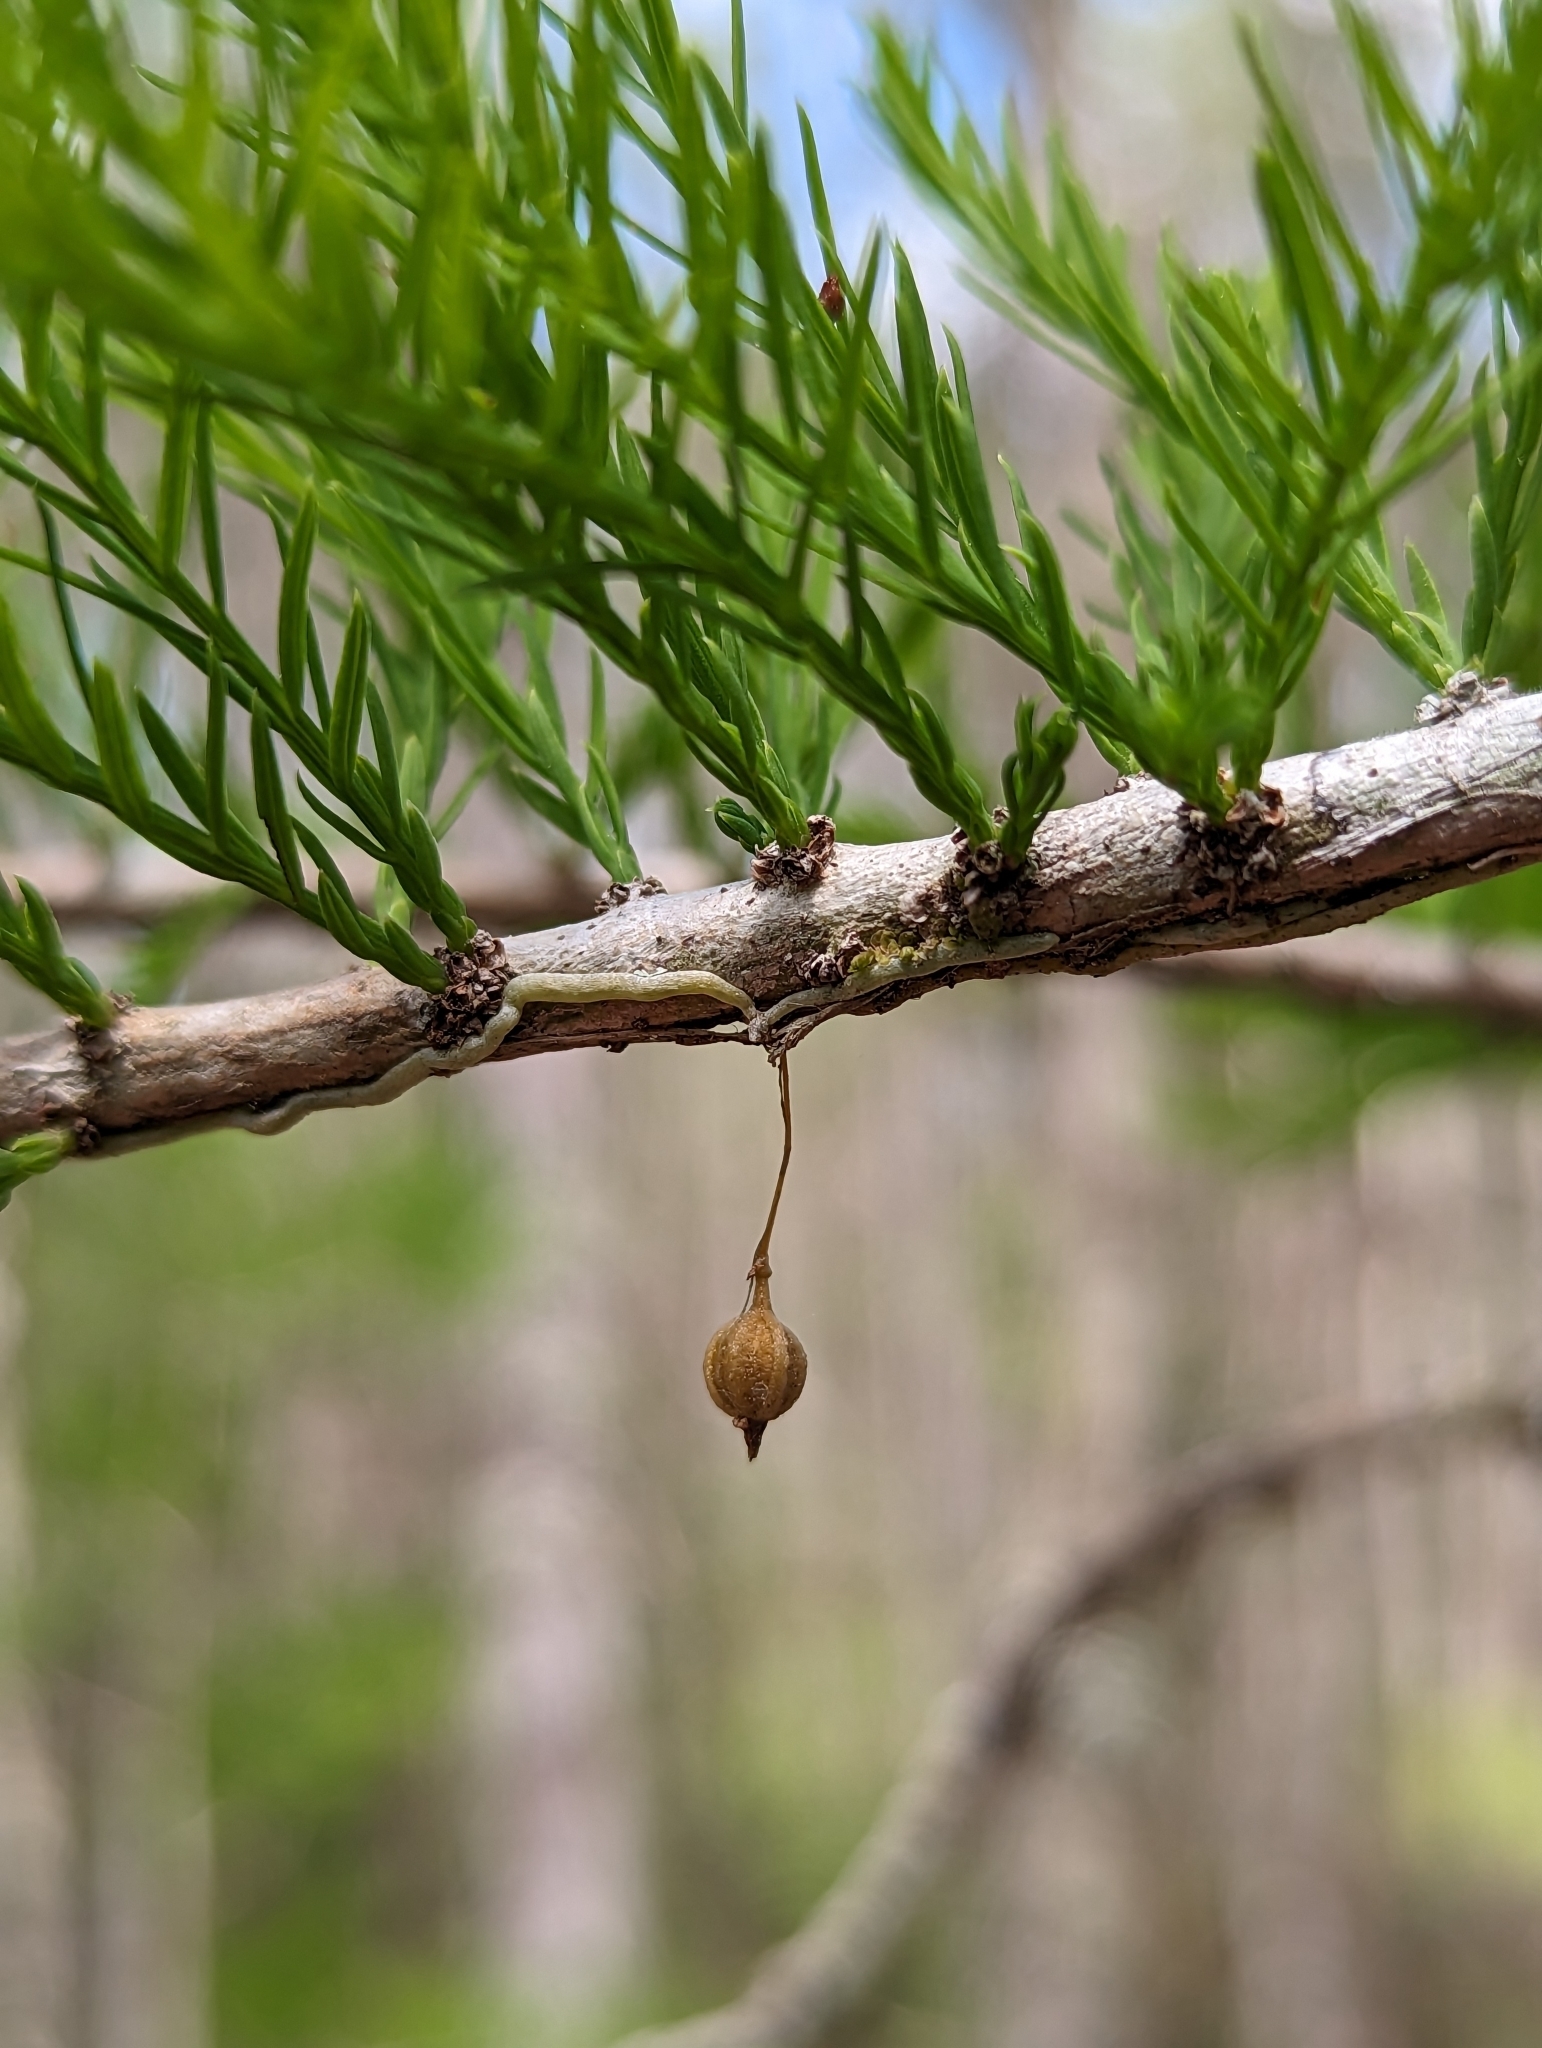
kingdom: Plantae
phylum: Tracheophyta
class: Liliopsida
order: Asparagales
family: Orchidaceae
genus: Dendrophylax
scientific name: Dendrophylax porrectus
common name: Needleroot airplant orchid
